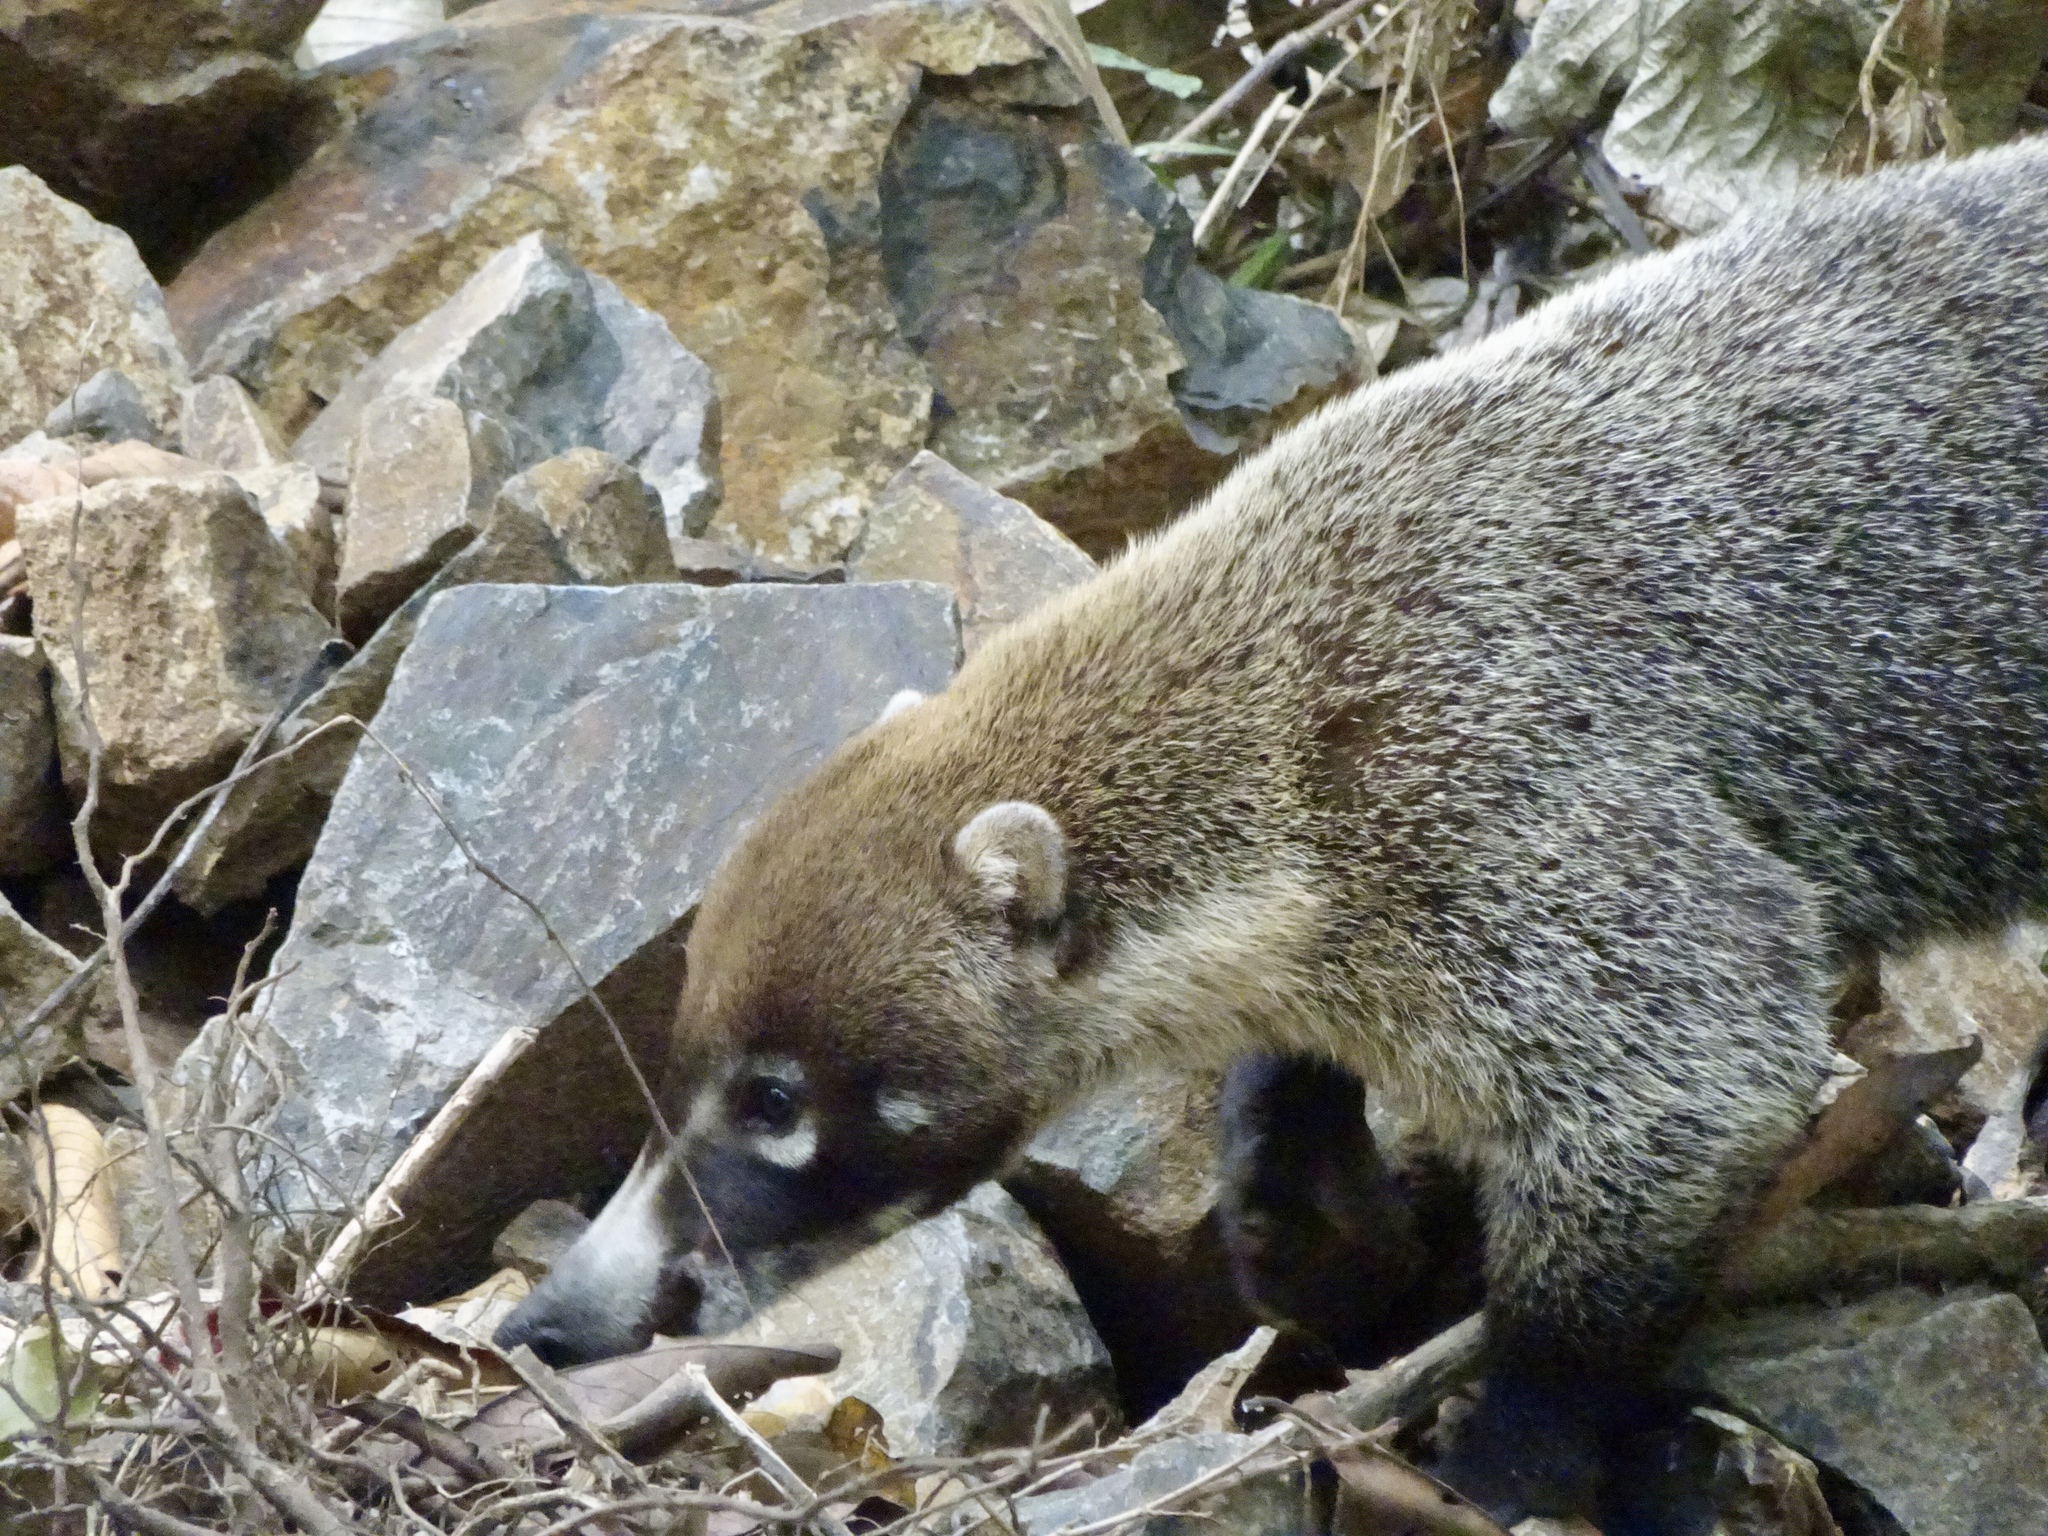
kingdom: Animalia
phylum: Chordata
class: Mammalia
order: Carnivora
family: Procyonidae
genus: Nasua
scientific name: Nasua narica
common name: White-nosed coati
